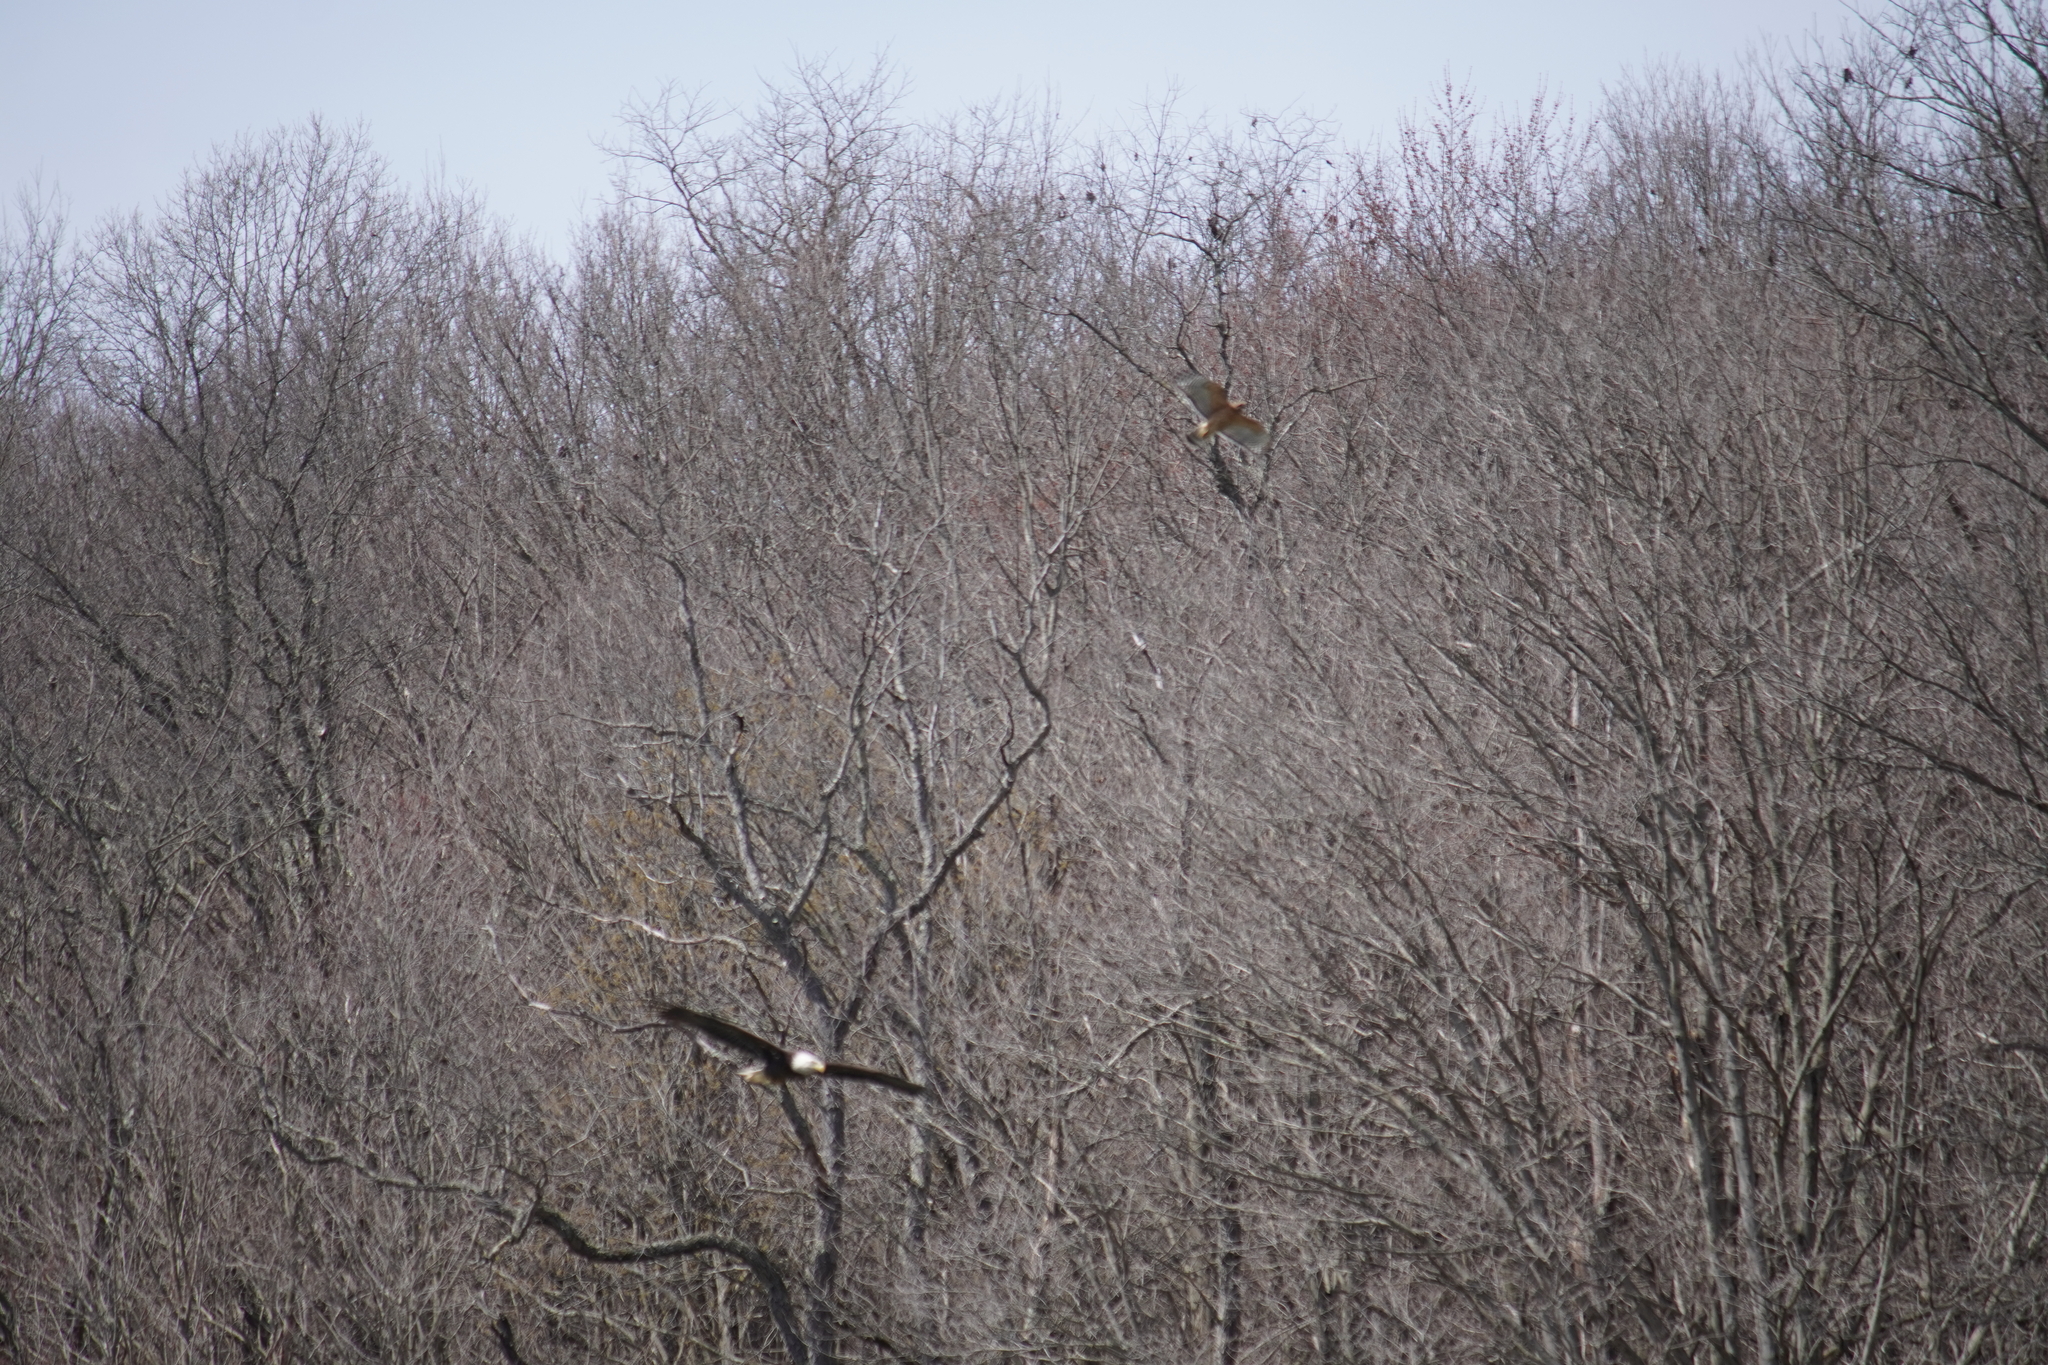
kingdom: Animalia
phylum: Chordata
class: Aves
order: Accipitriformes
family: Accipitridae
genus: Haliaeetus
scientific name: Haliaeetus leucocephalus
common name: Bald eagle
